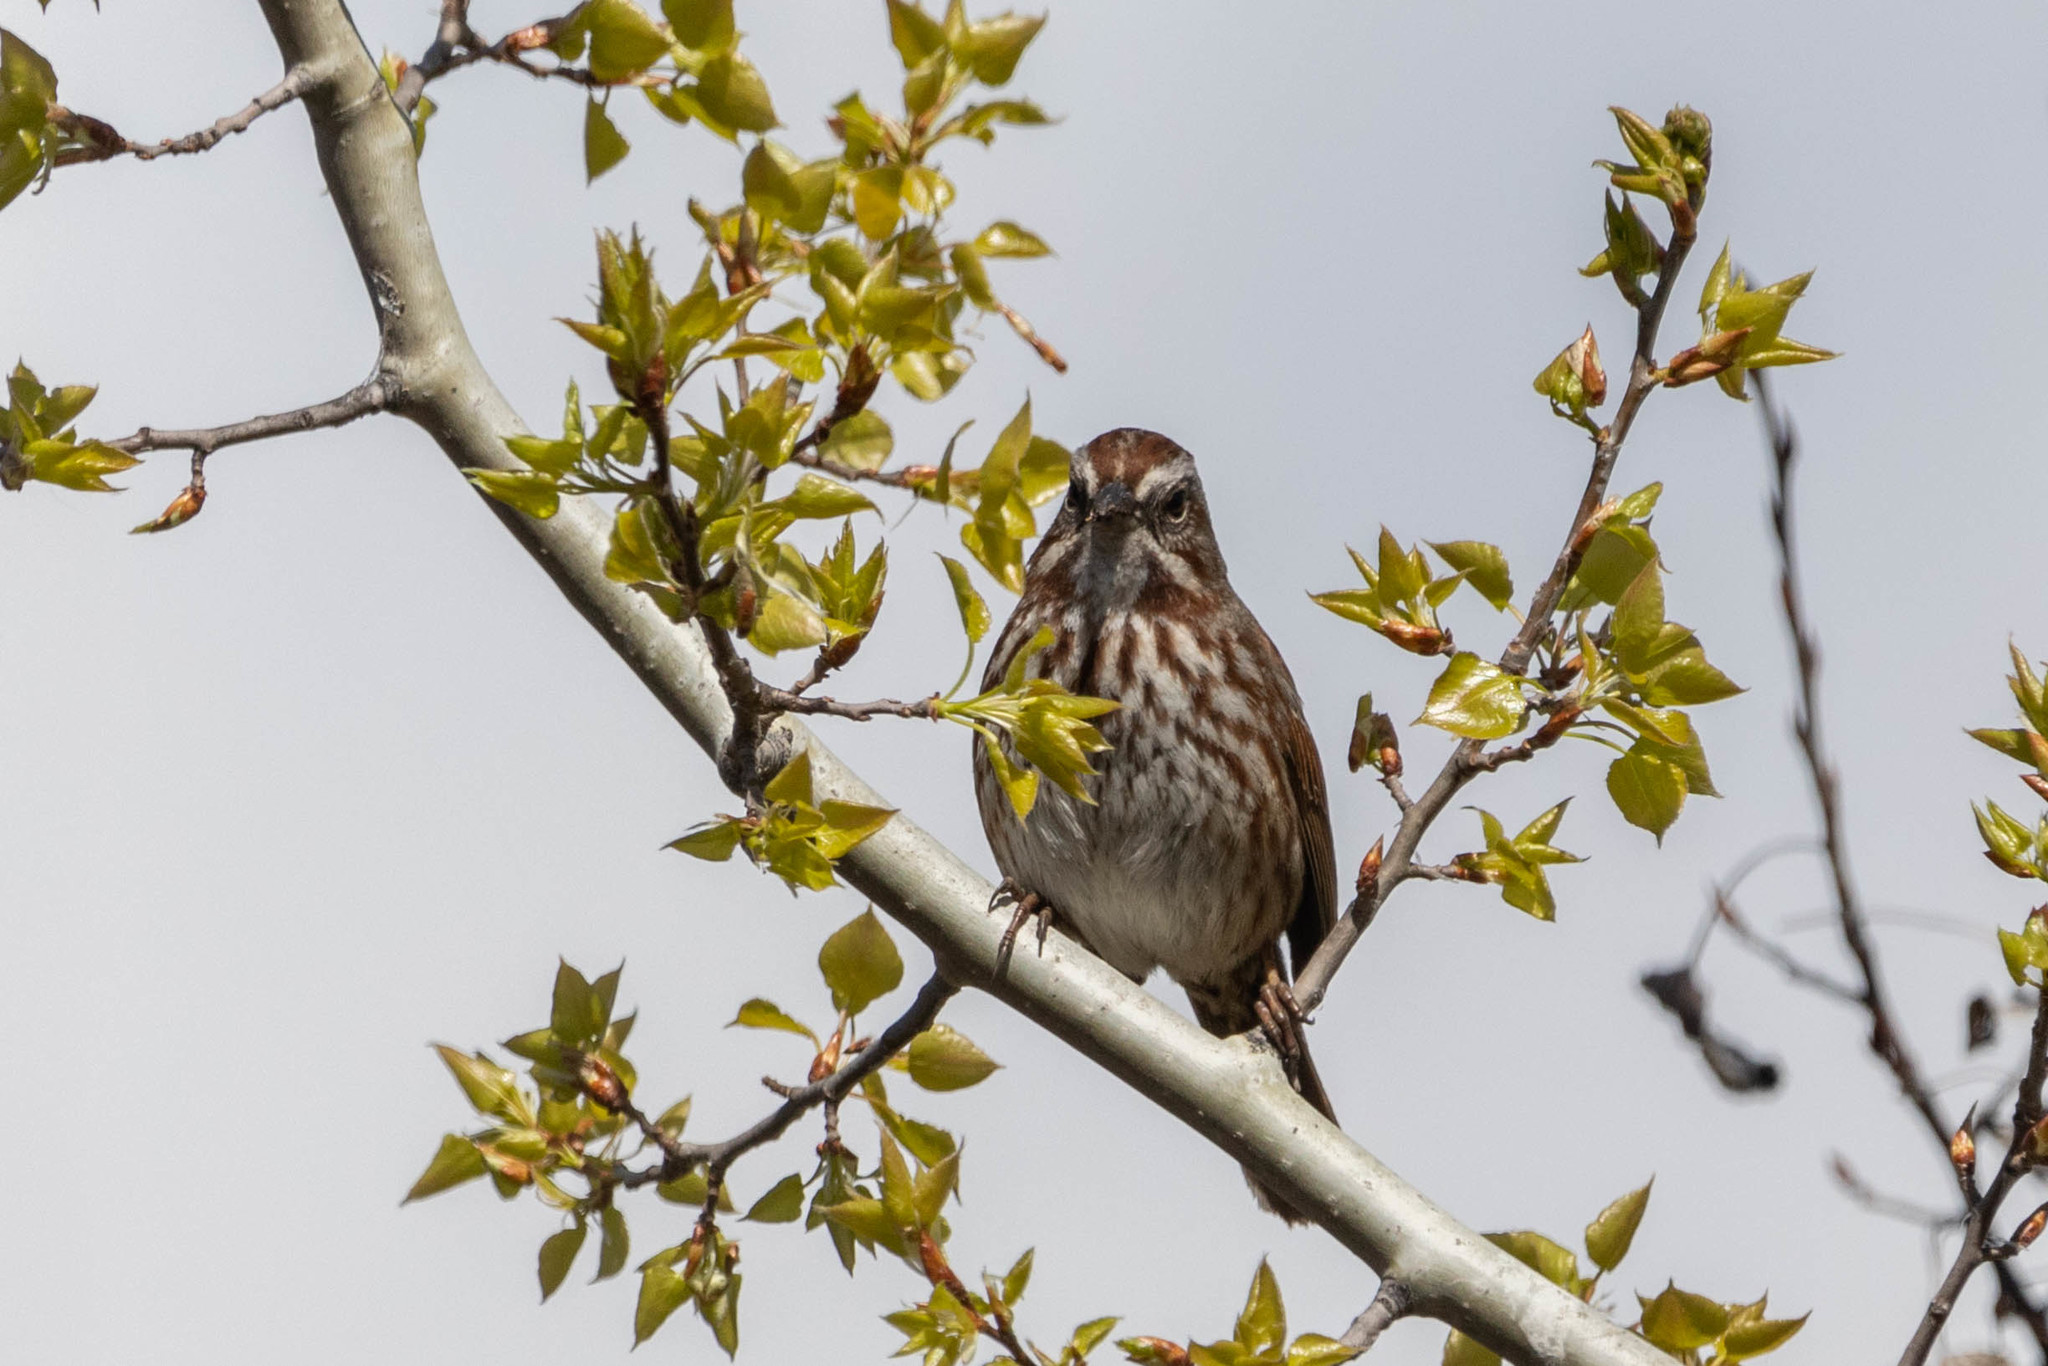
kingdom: Animalia
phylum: Chordata
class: Aves
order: Passeriformes
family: Passerellidae
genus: Melospiza
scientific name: Melospiza melodia
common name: Song sparrow
